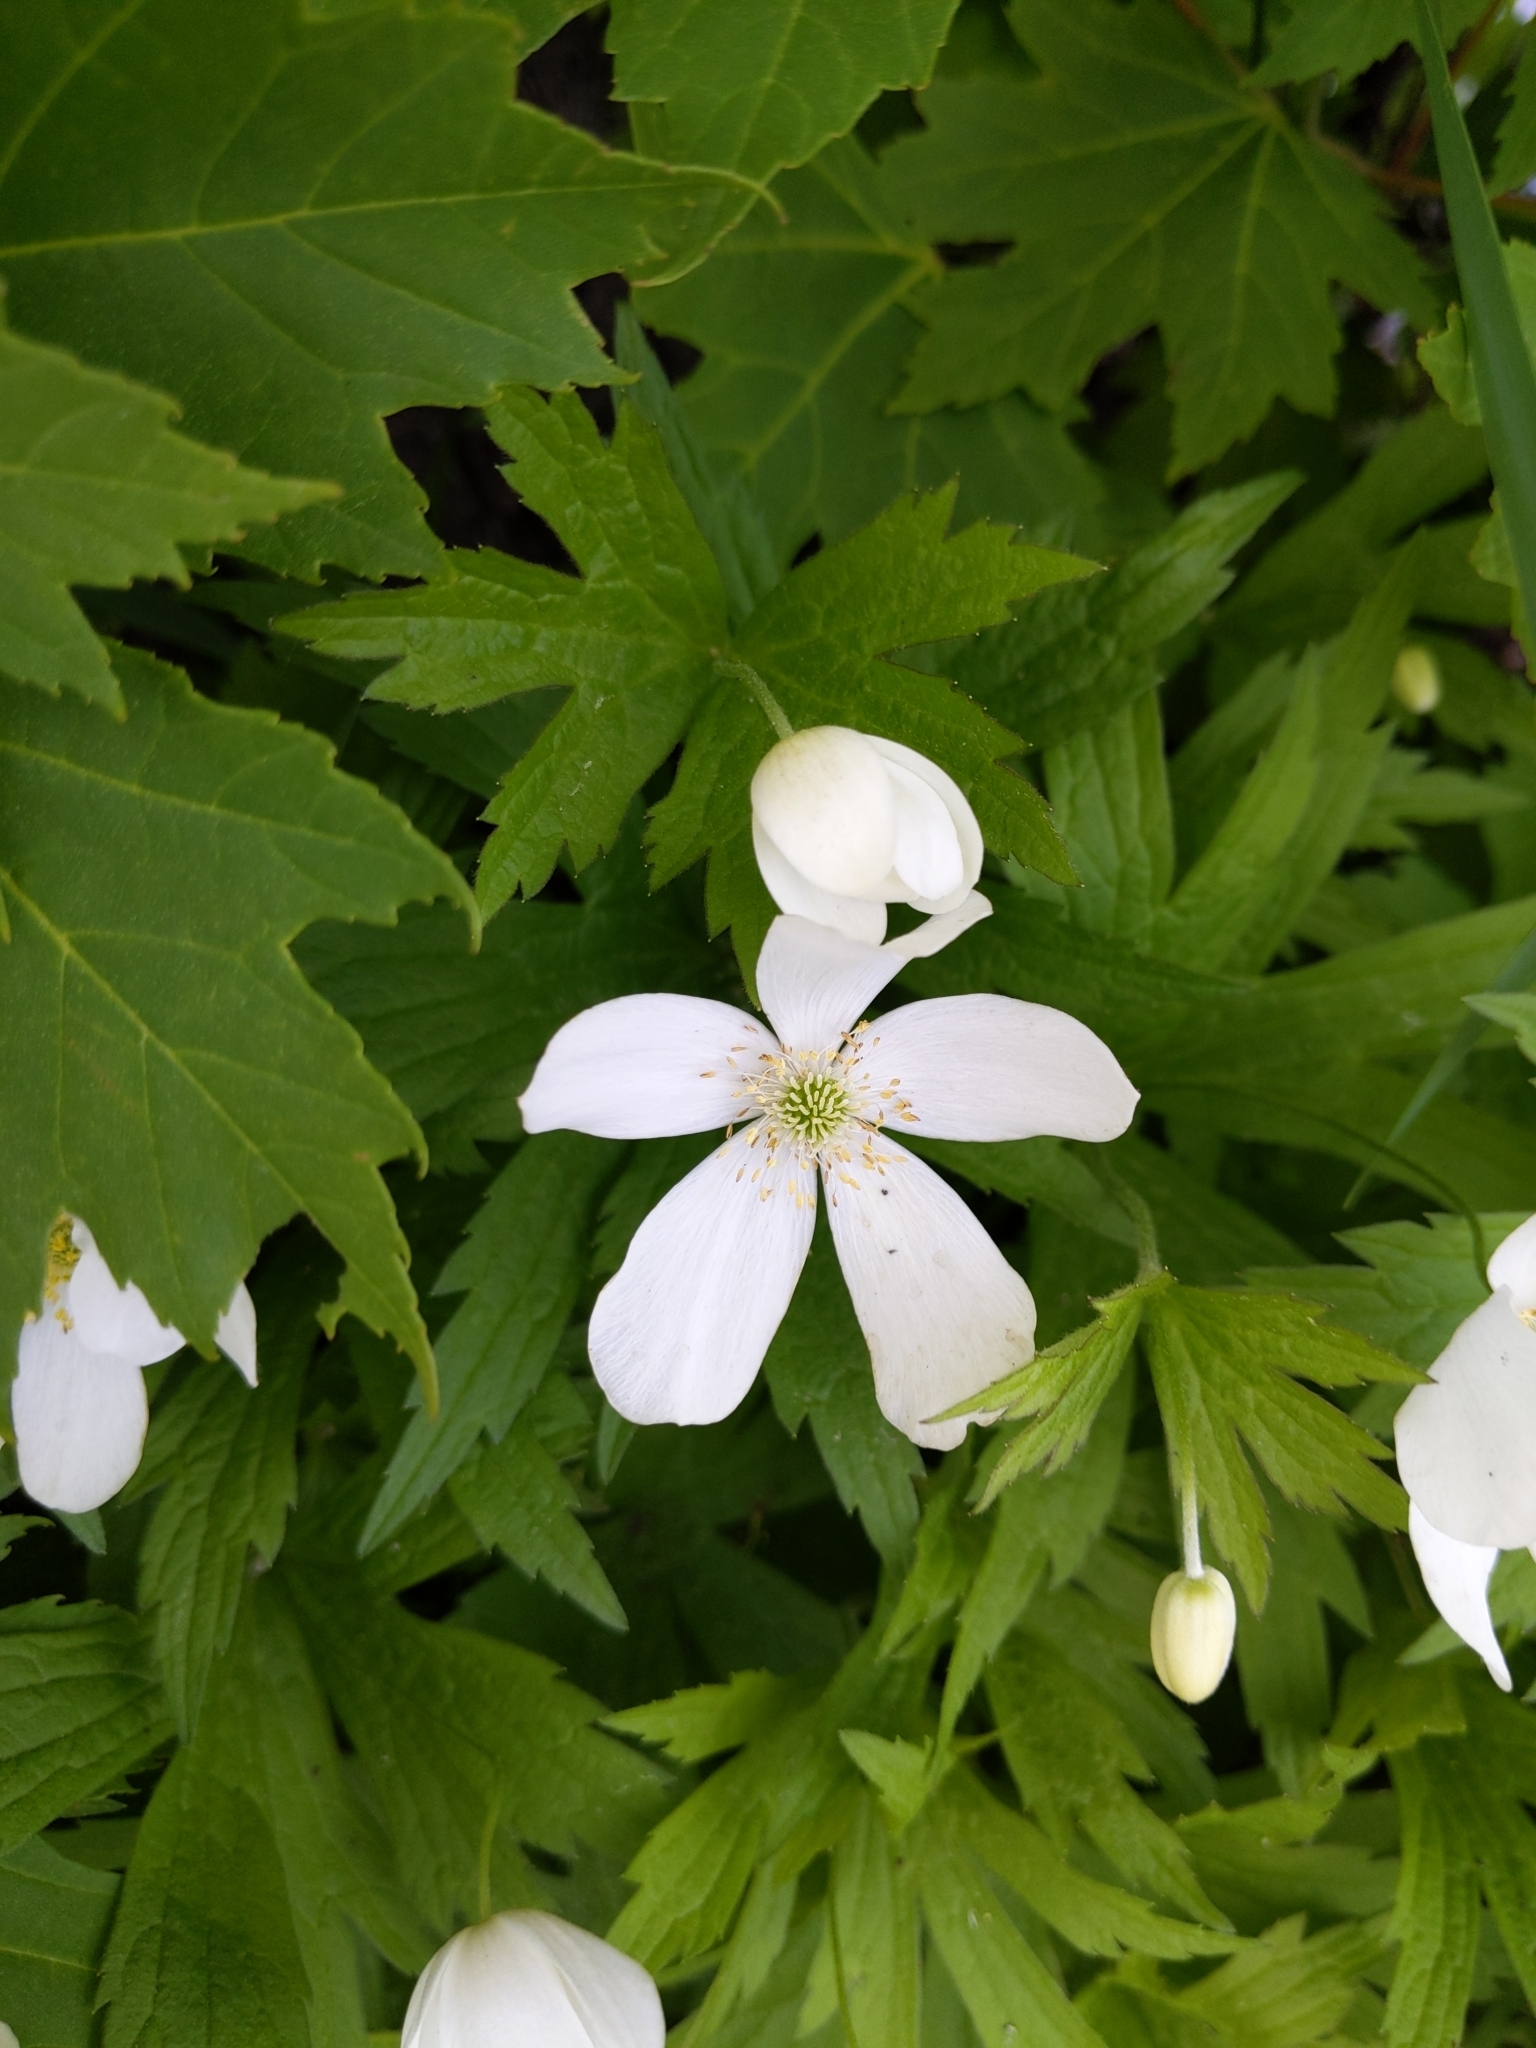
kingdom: Plantae
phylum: Tracheophyta
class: Magnoliopsida
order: Ranunculales
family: Ranunculaceae
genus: Anemonastrum
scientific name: Anemonastrum canadense
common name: Canada anemone
